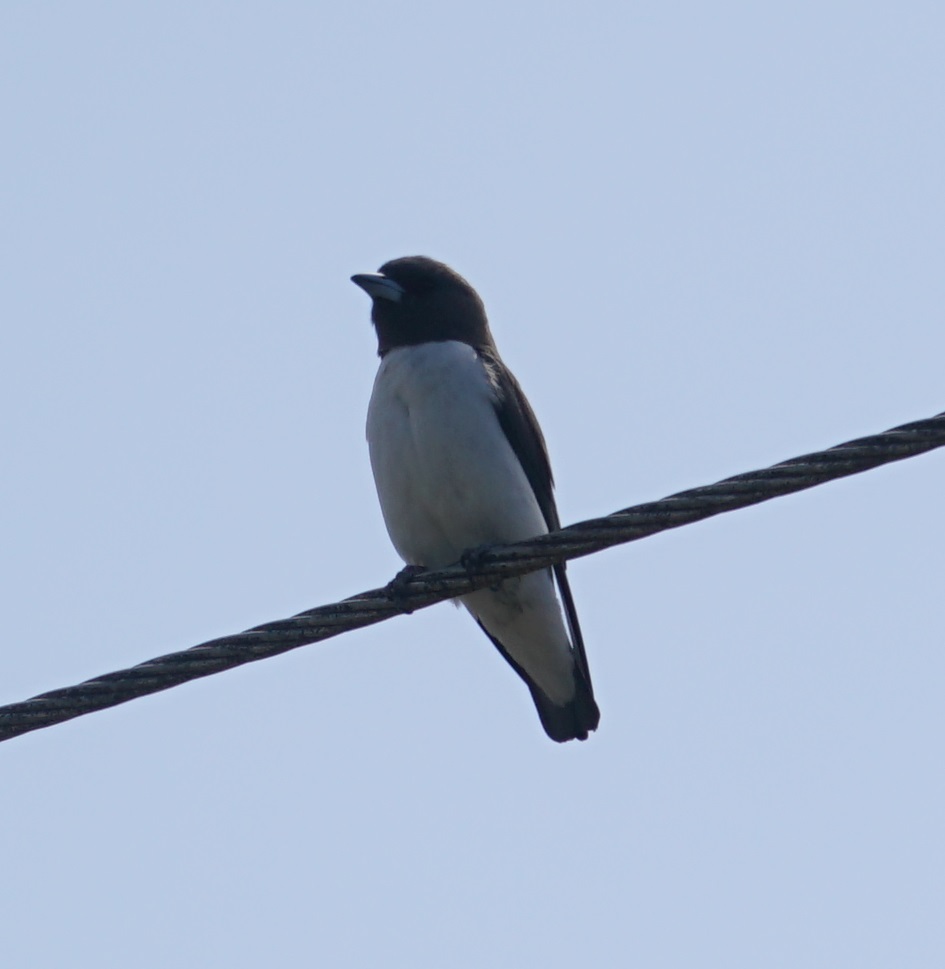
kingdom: Animalia
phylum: Chordata
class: Aves
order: Passeriformes
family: Artamidae
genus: Artamus
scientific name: Artamus leucoryn
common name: White-breasted woodswallow
